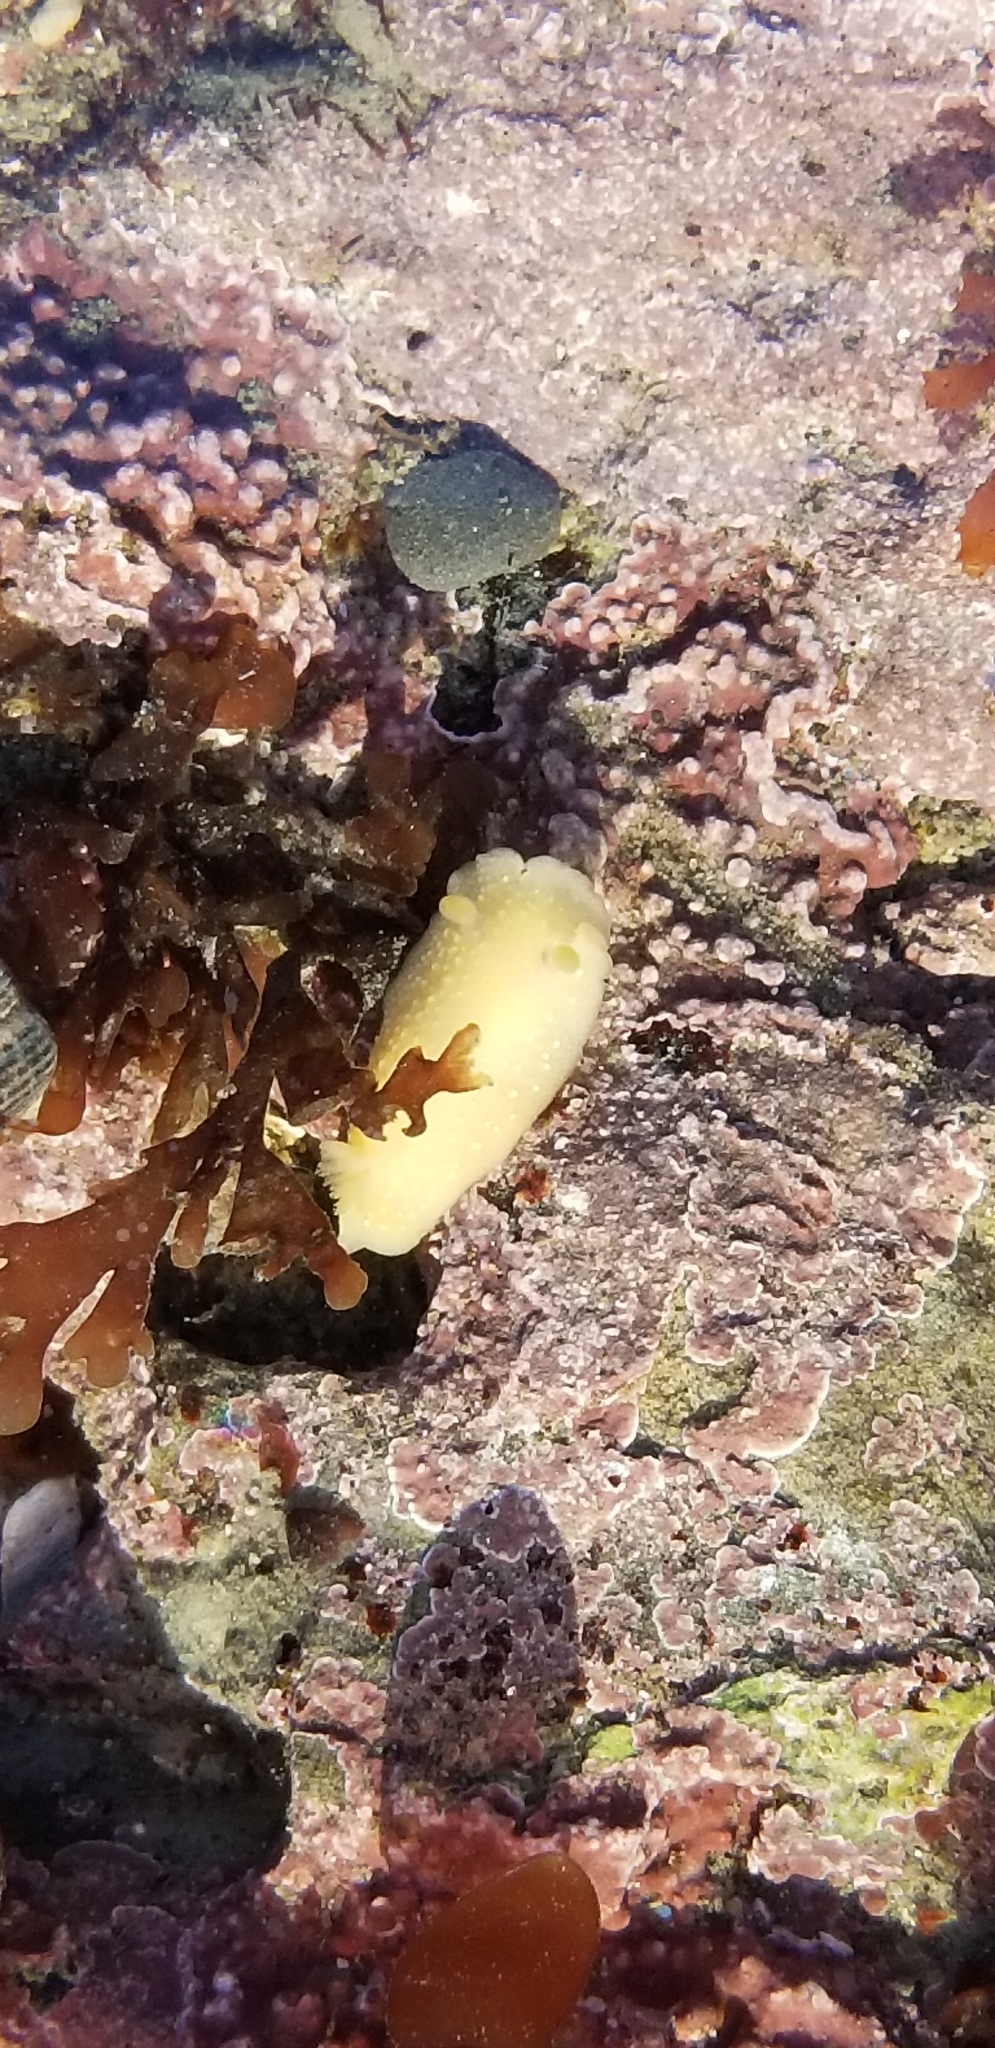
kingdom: Animalia
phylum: Mollusca
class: Gastropoda
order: Nudibranchia
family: Cadlinidae
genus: Cadlina
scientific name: Cadlina modesta
